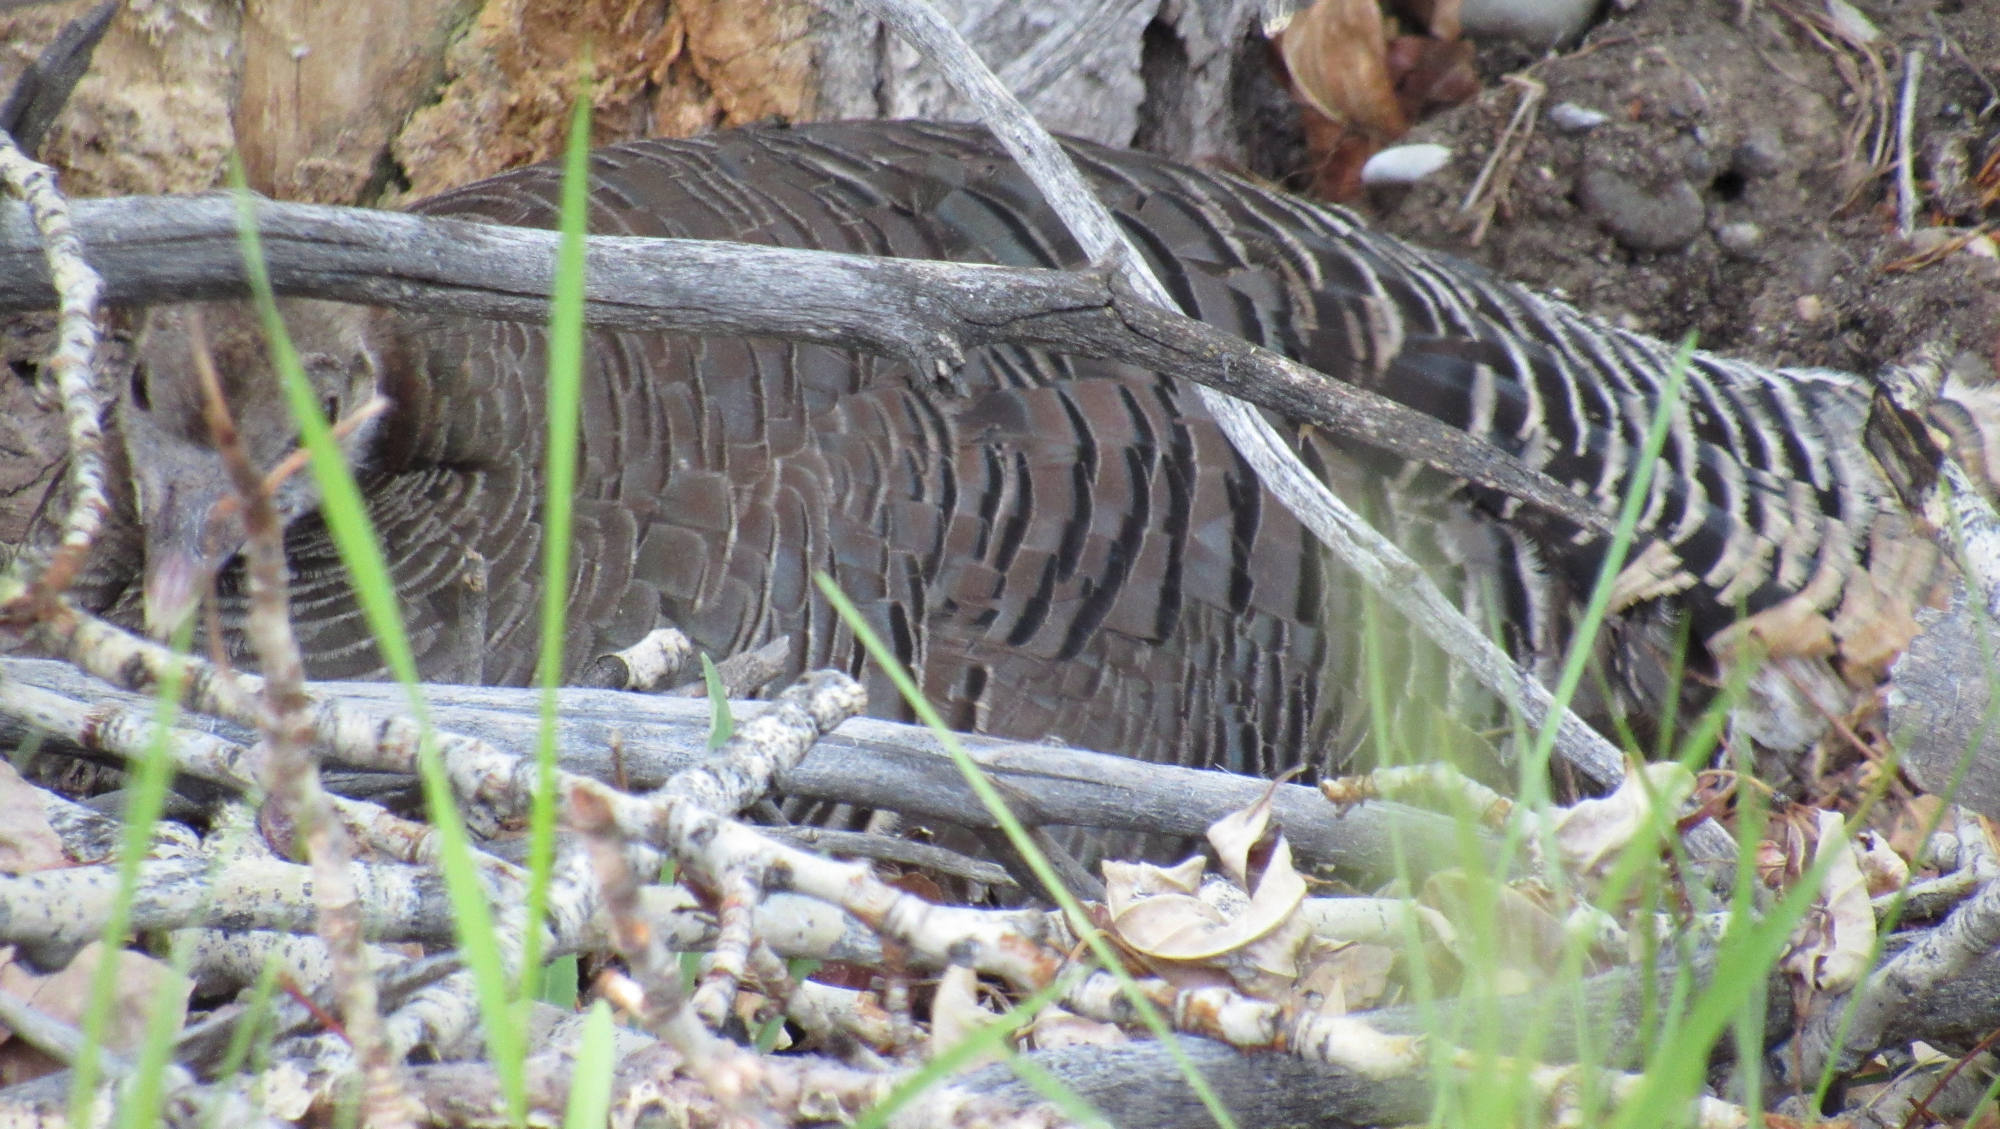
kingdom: Animalia
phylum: Chordata
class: Aves
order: Galliformes
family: Phasianidae
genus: Meleagris
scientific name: Meleagris gallopavo
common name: Wild turkey
